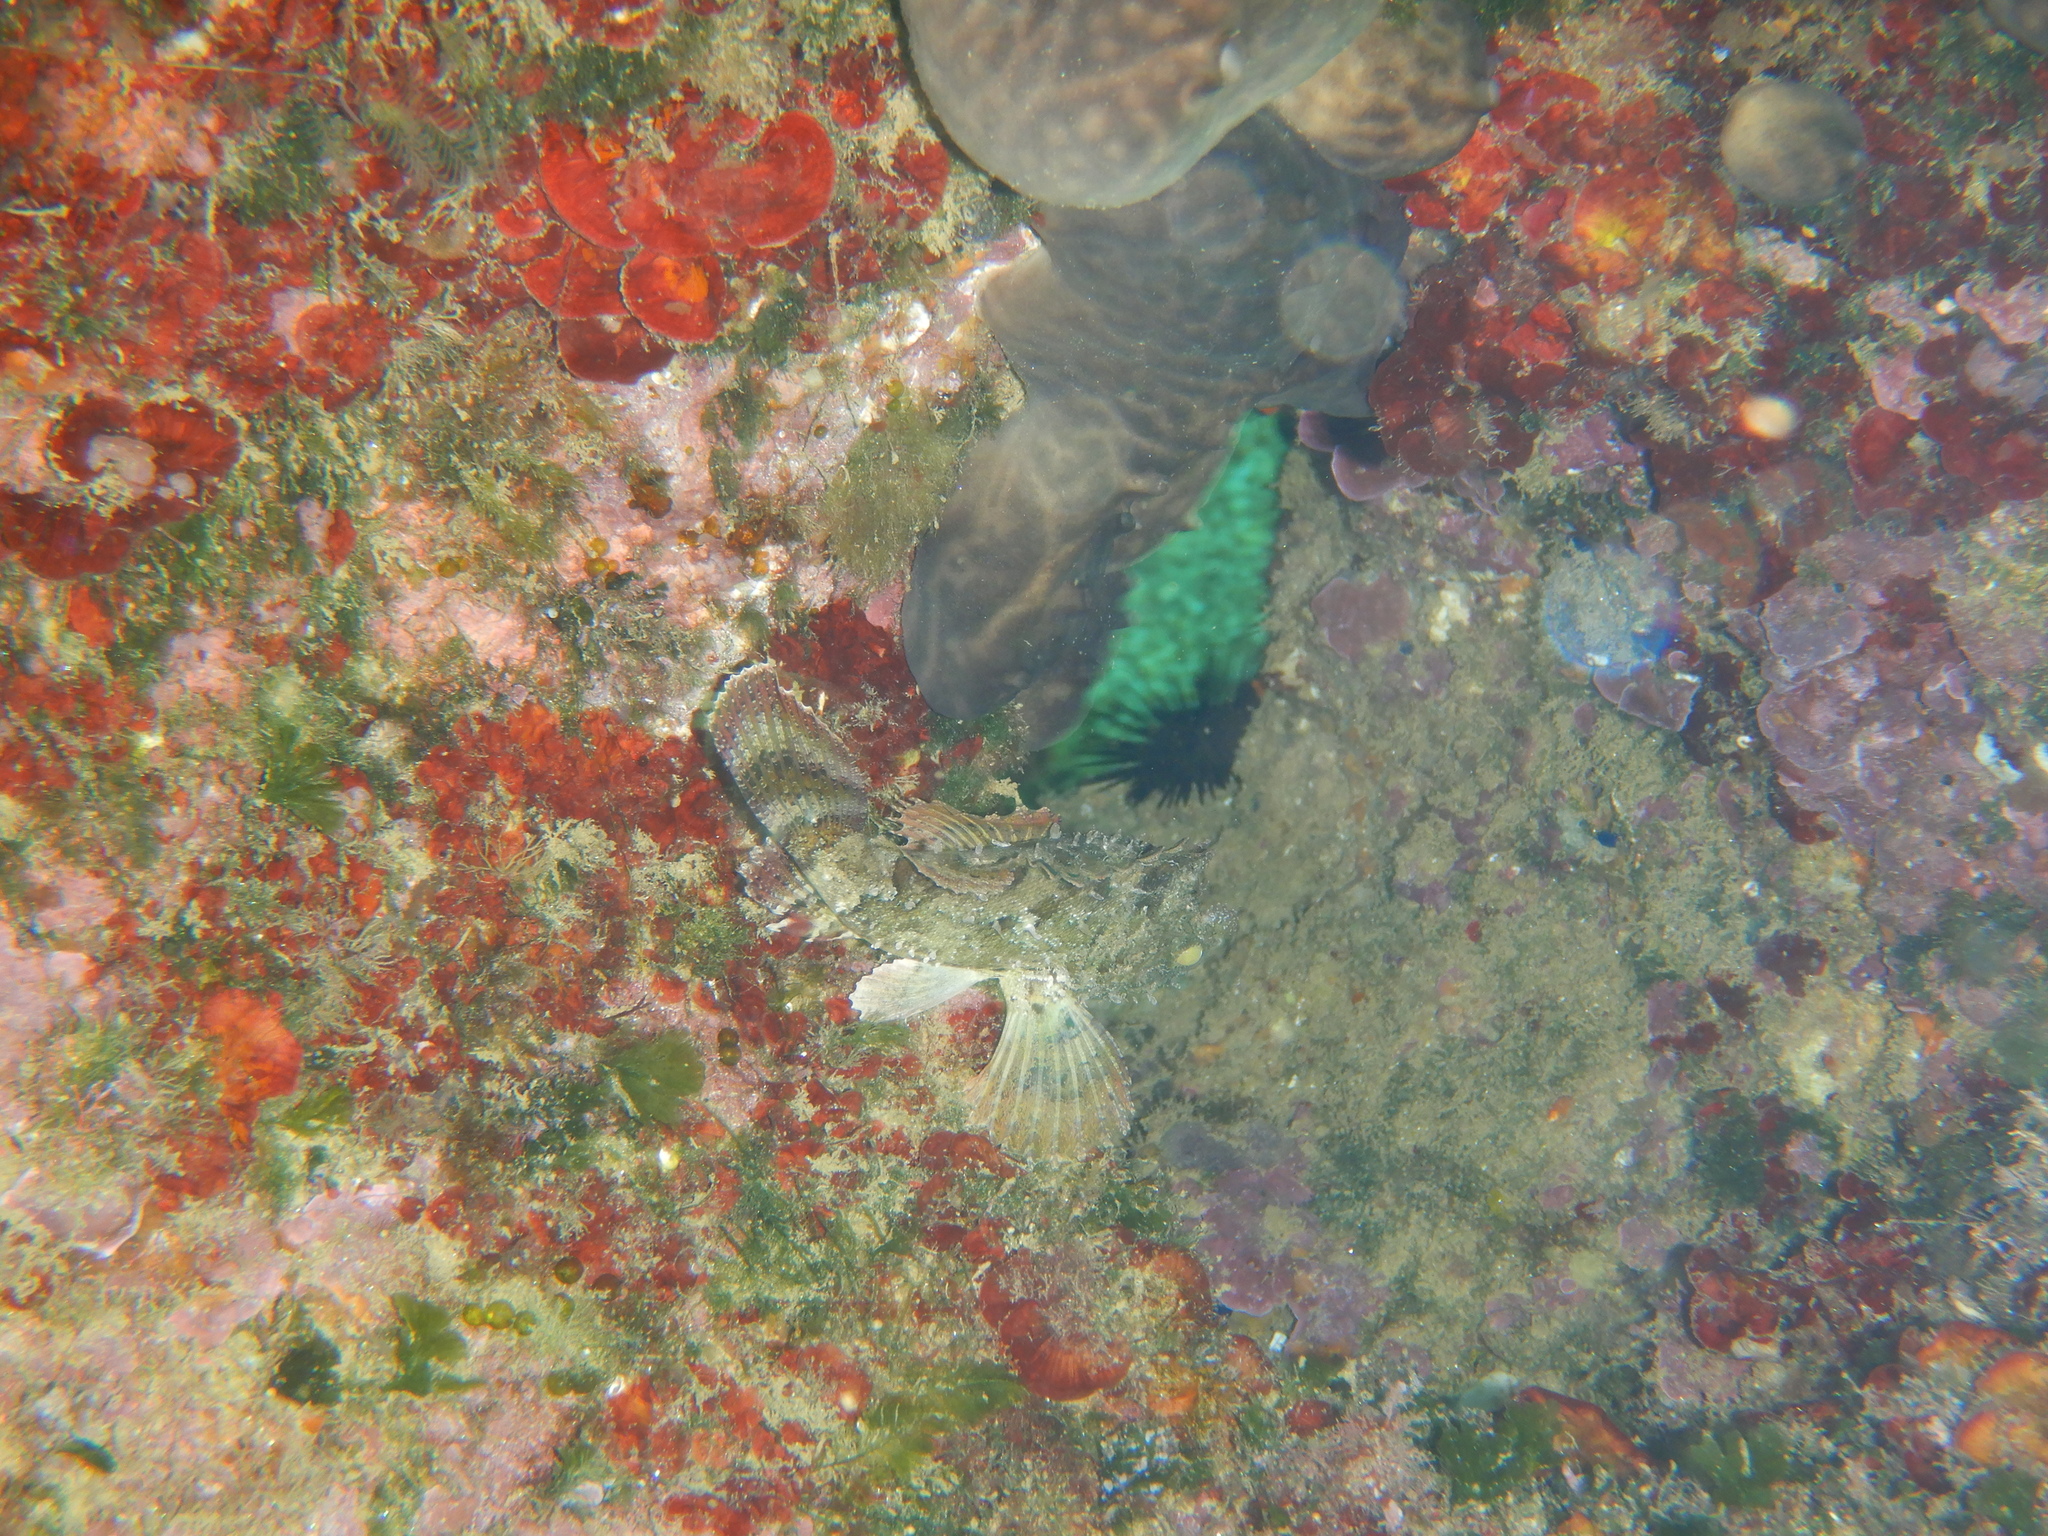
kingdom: Animalia
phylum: Chordata
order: Scorpaeniformes
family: Scorpaenidae
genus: Scorpaena
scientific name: Scorpaena porcus
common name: Black scorpionfish
